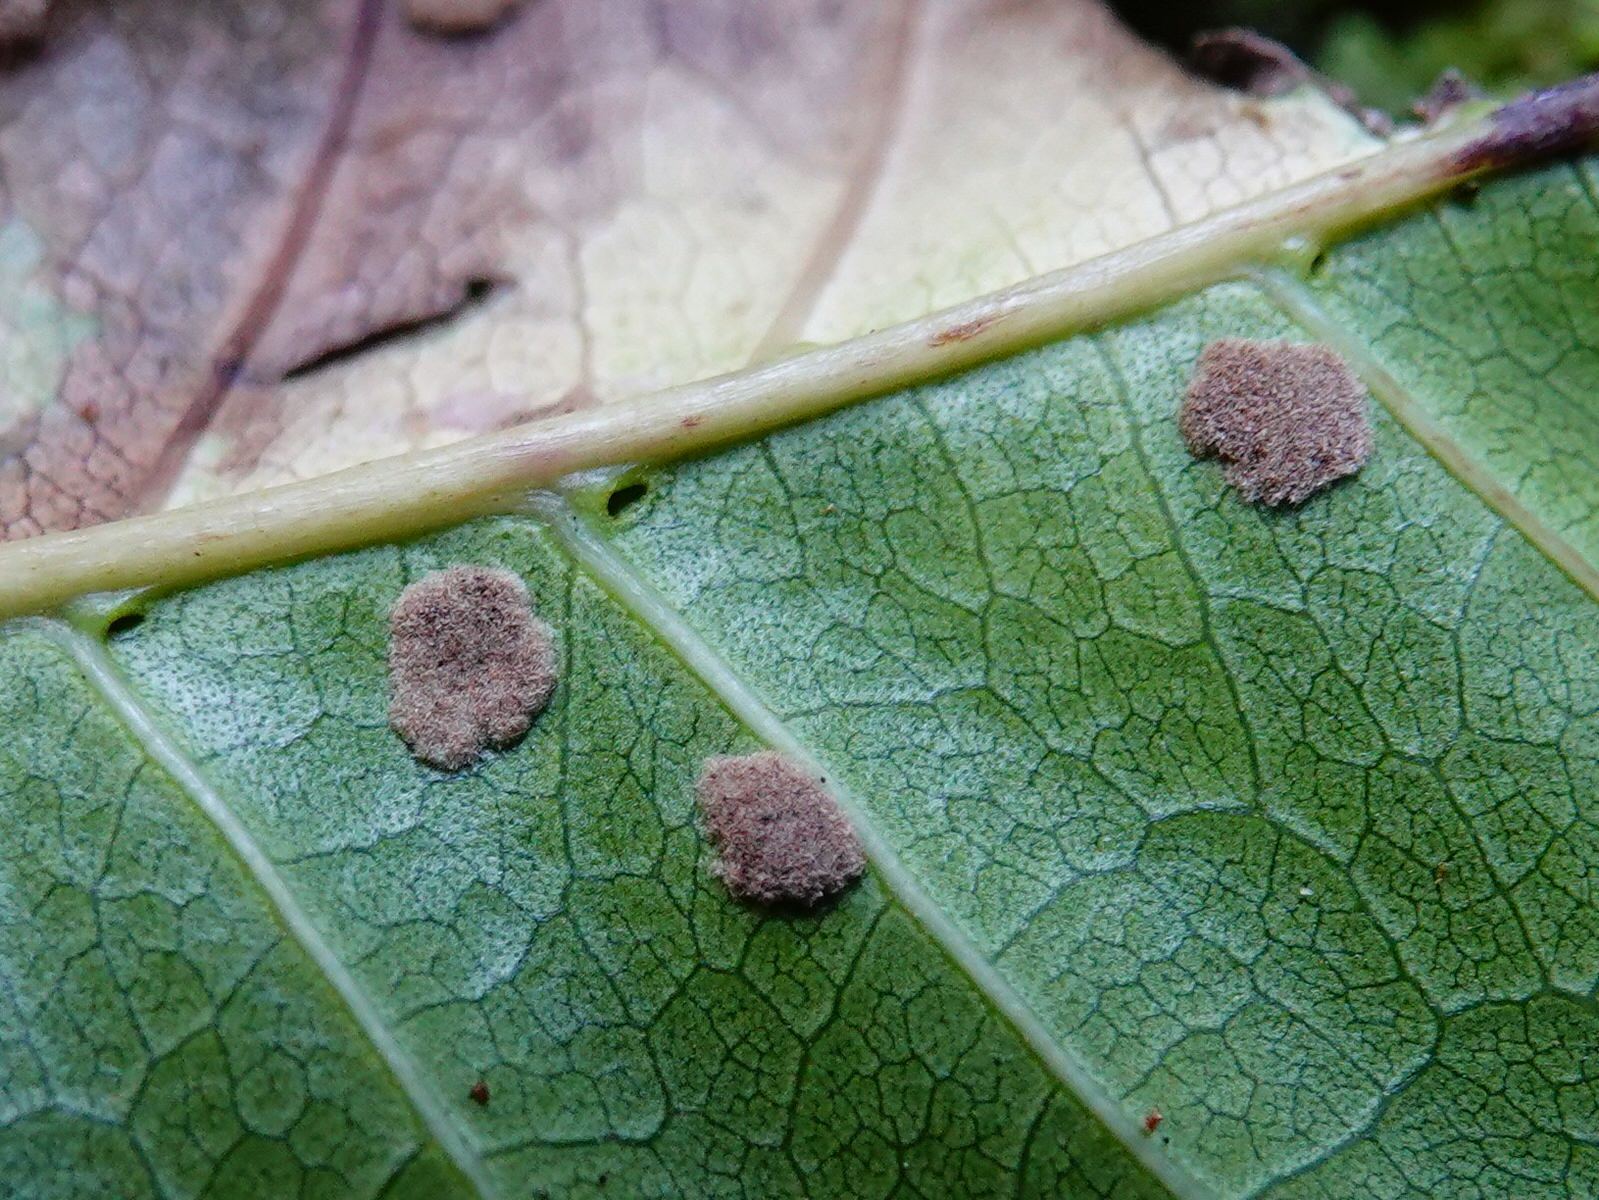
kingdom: Animalia
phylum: Arthropoda
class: Arachnida
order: Trombidiformes
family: Eriophyidae
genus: Acalitus
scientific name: Acalitus
